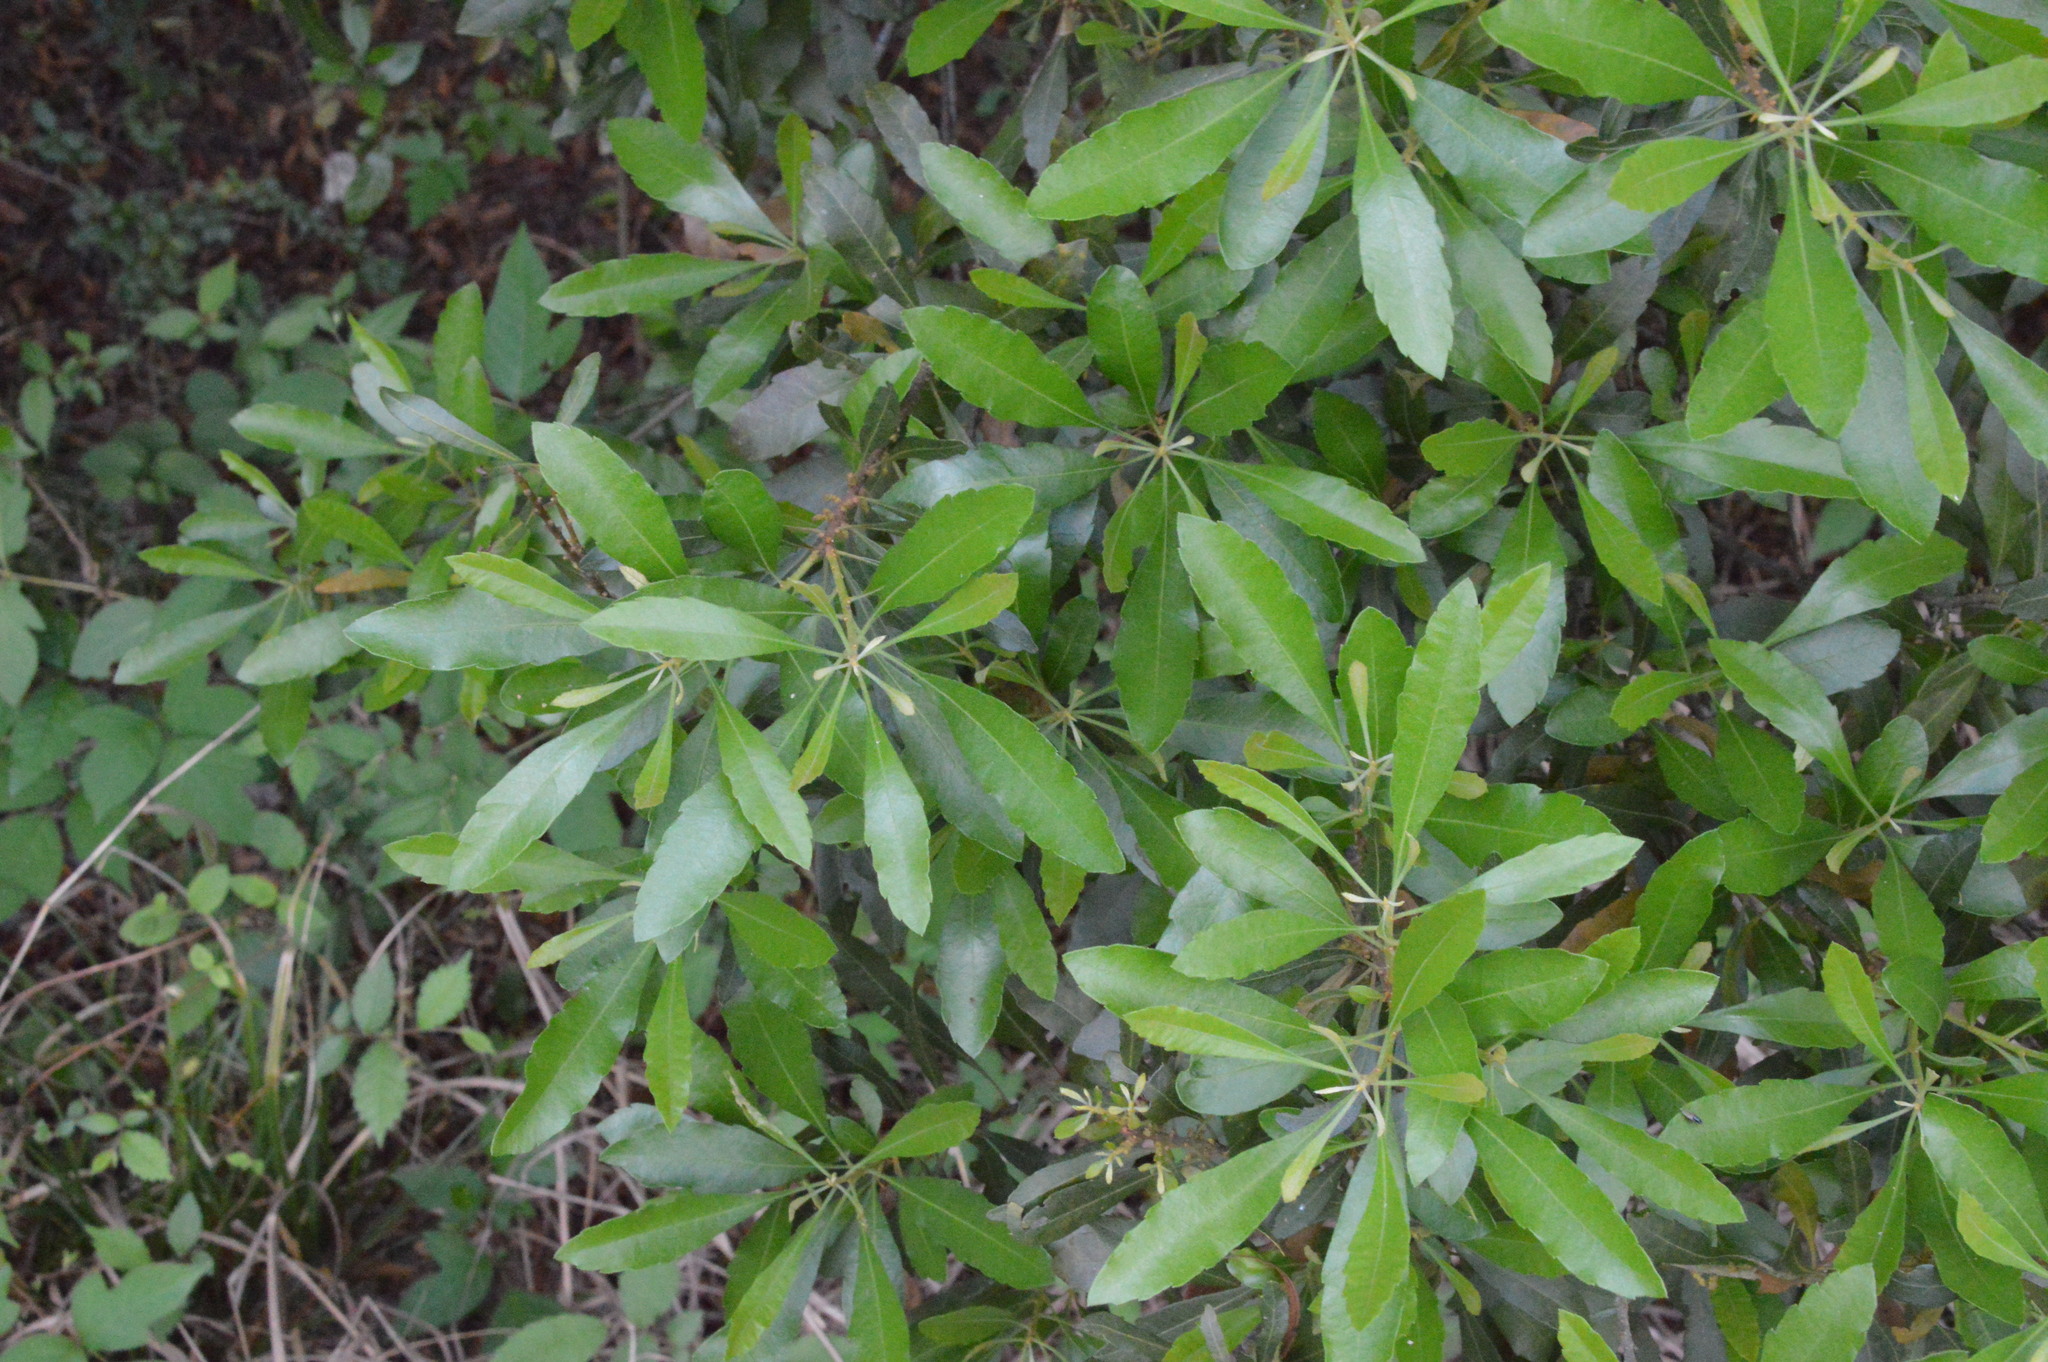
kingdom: Plantae
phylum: Tracheophyta
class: Magnoliopsida
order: Fagales
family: Myricaceae
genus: Morella
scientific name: Morella cerifera
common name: Wax myrtle
